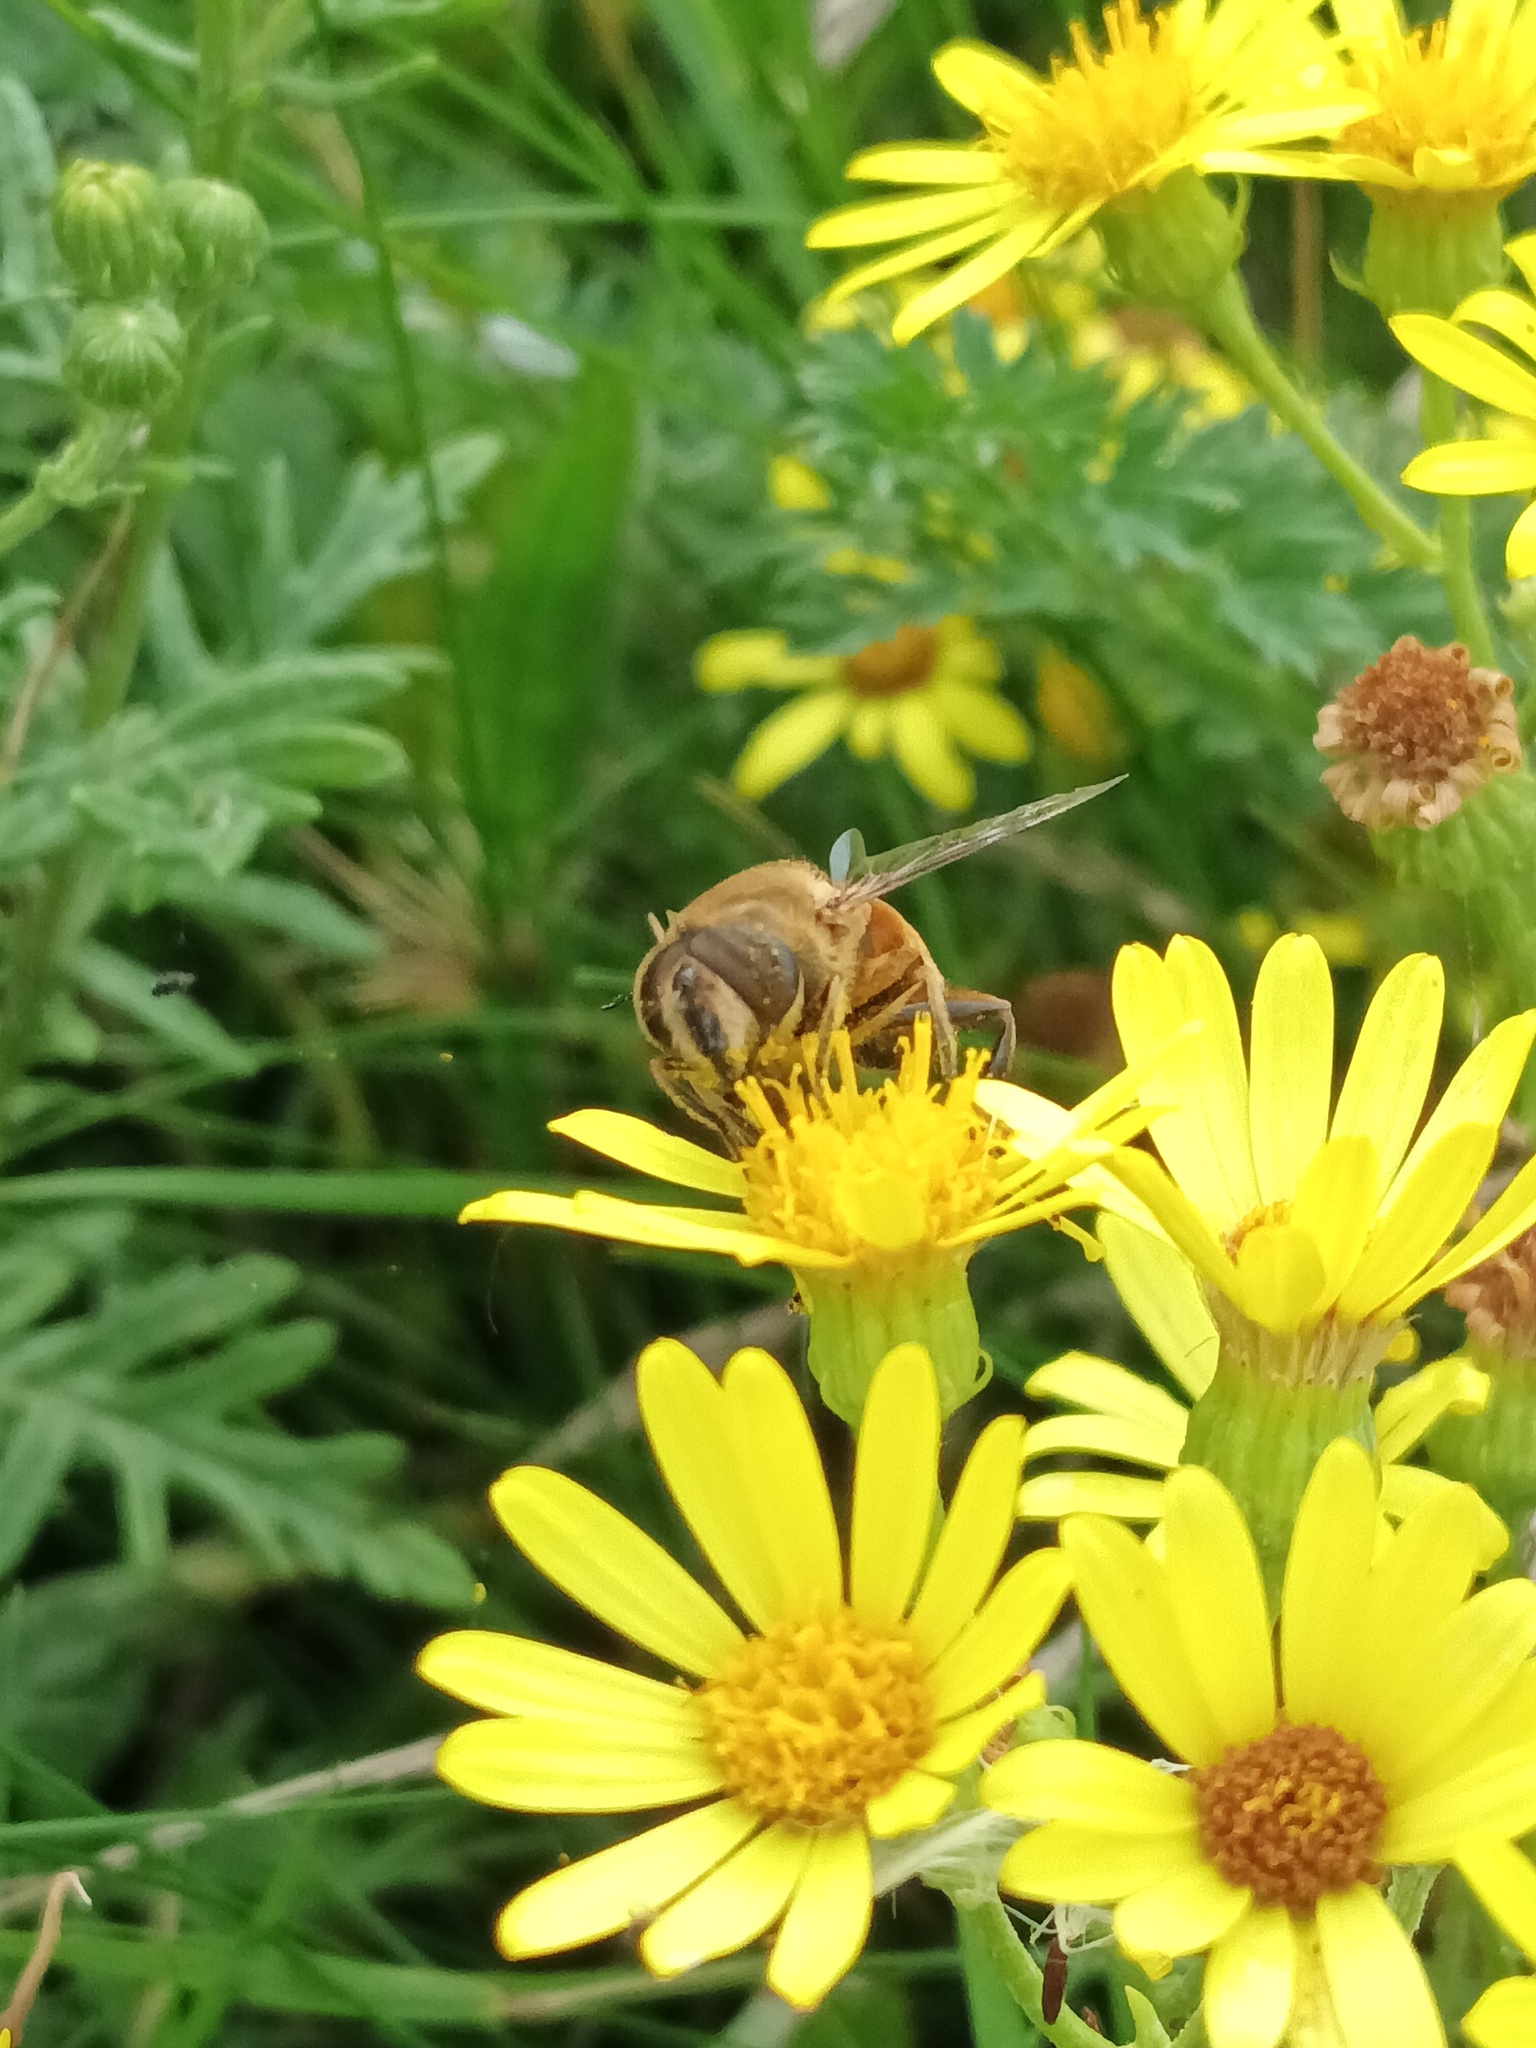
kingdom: Animalia
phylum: Arthropoda
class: Insecta
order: Diptera
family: Syrphidae
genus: Eristalis
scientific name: Eristalis tenax
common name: Drone fly
